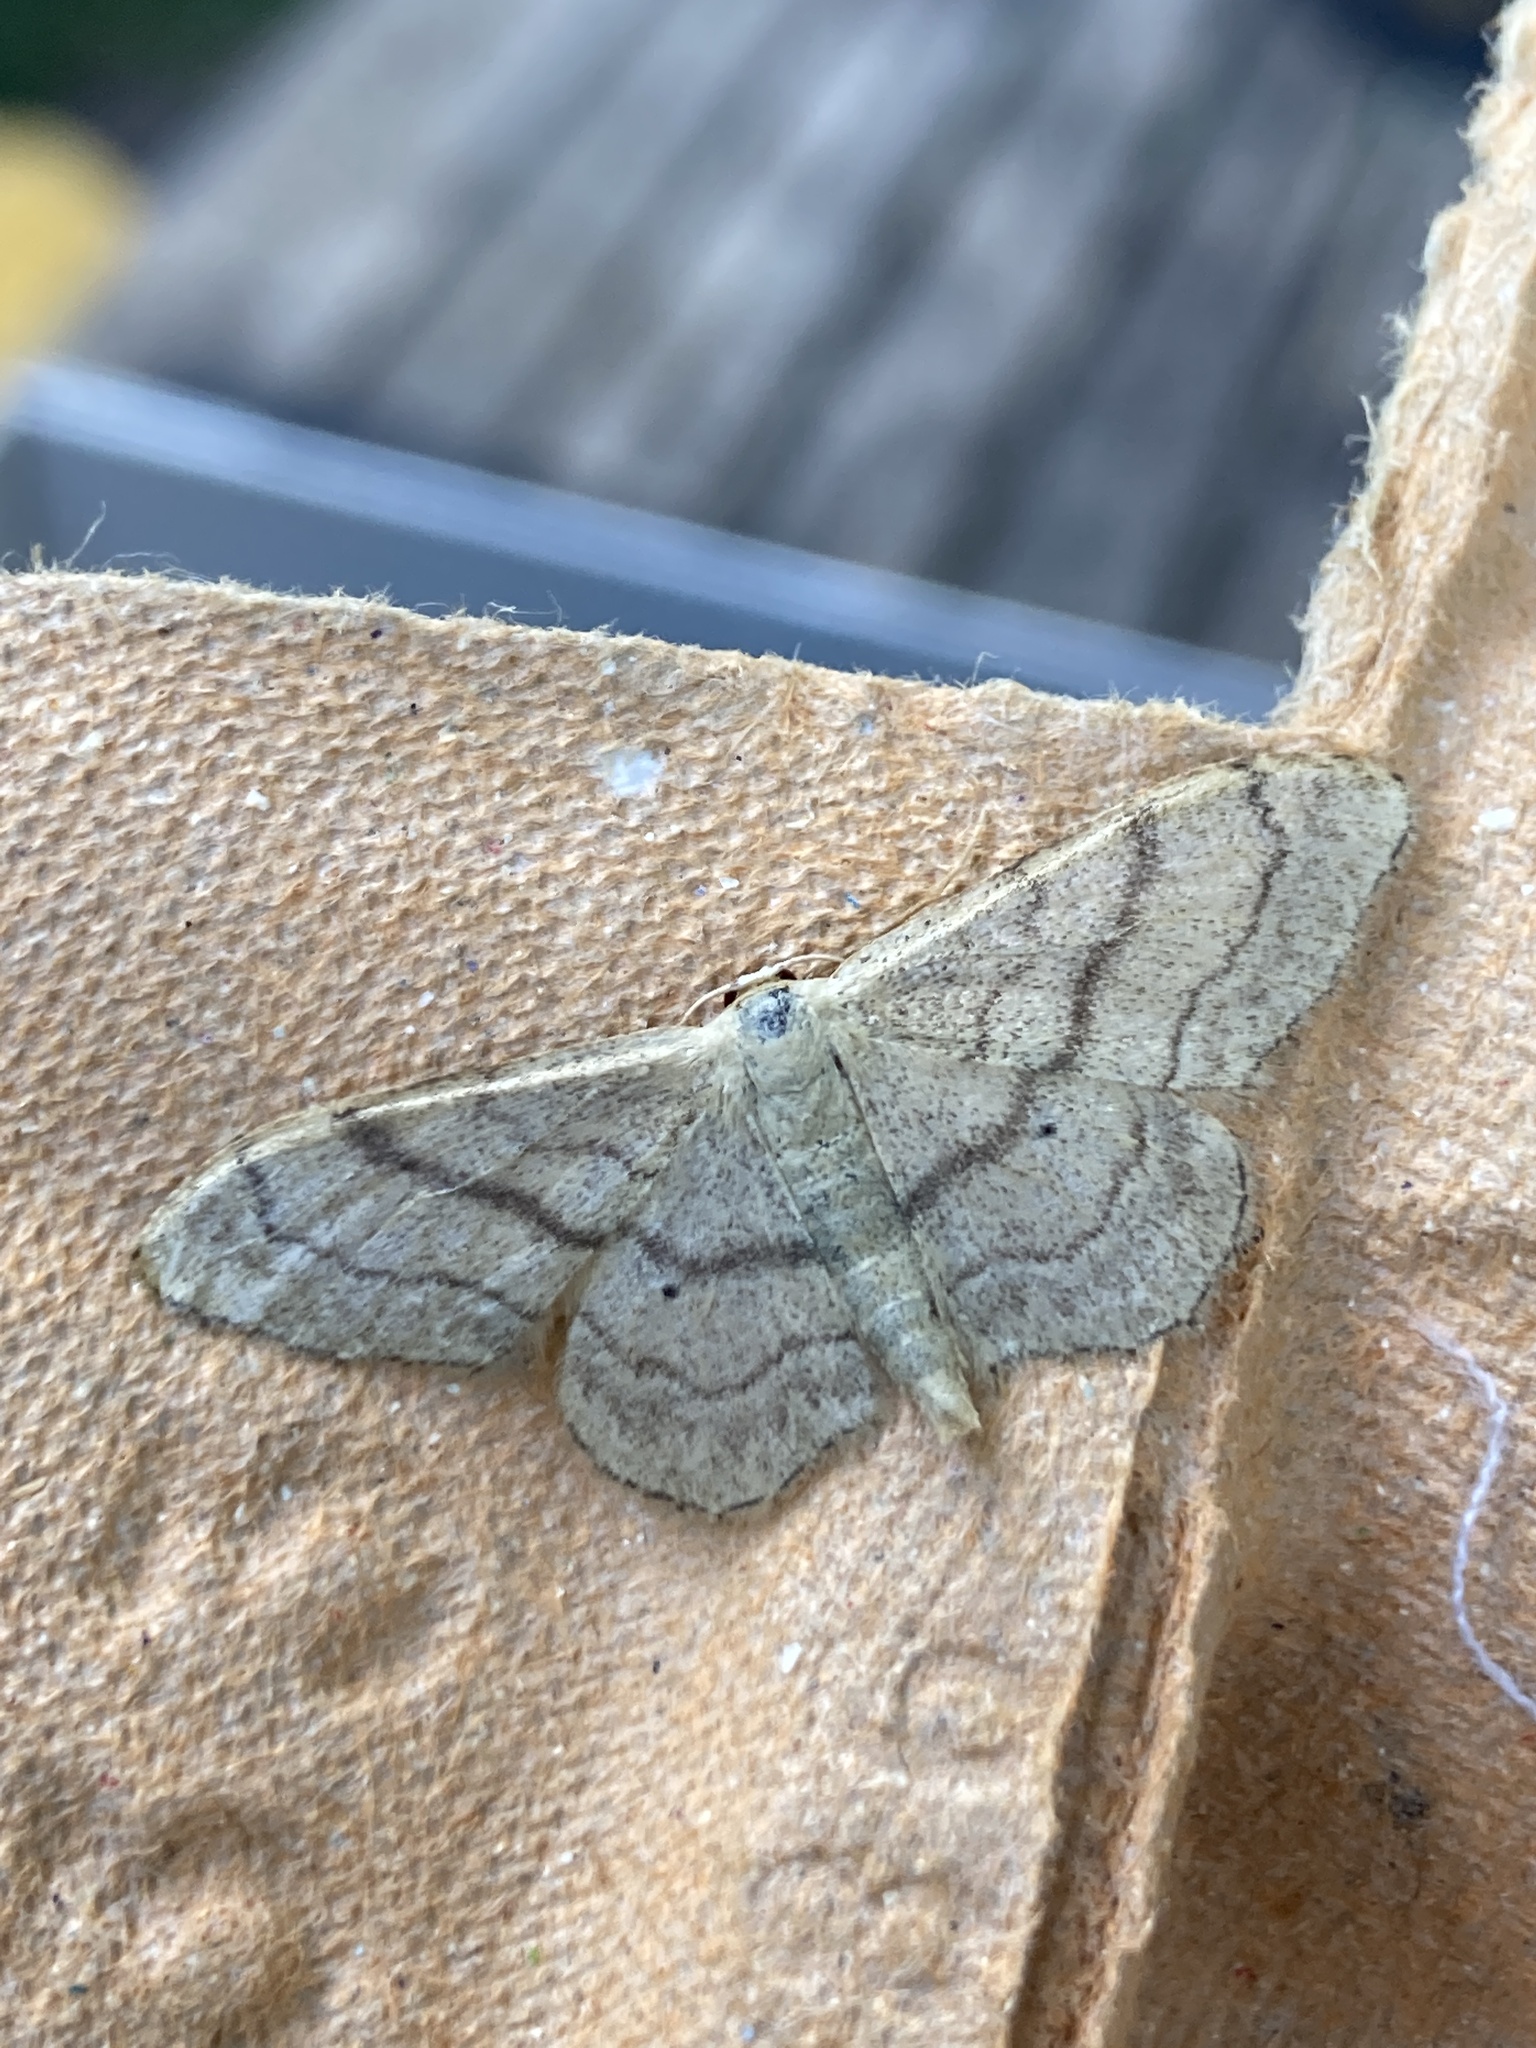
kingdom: Animalia
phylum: Arthropoda
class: Insecta
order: Lepidoptera
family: Geometridae
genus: Idaea
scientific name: Idaea aversata
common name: Riband wave
